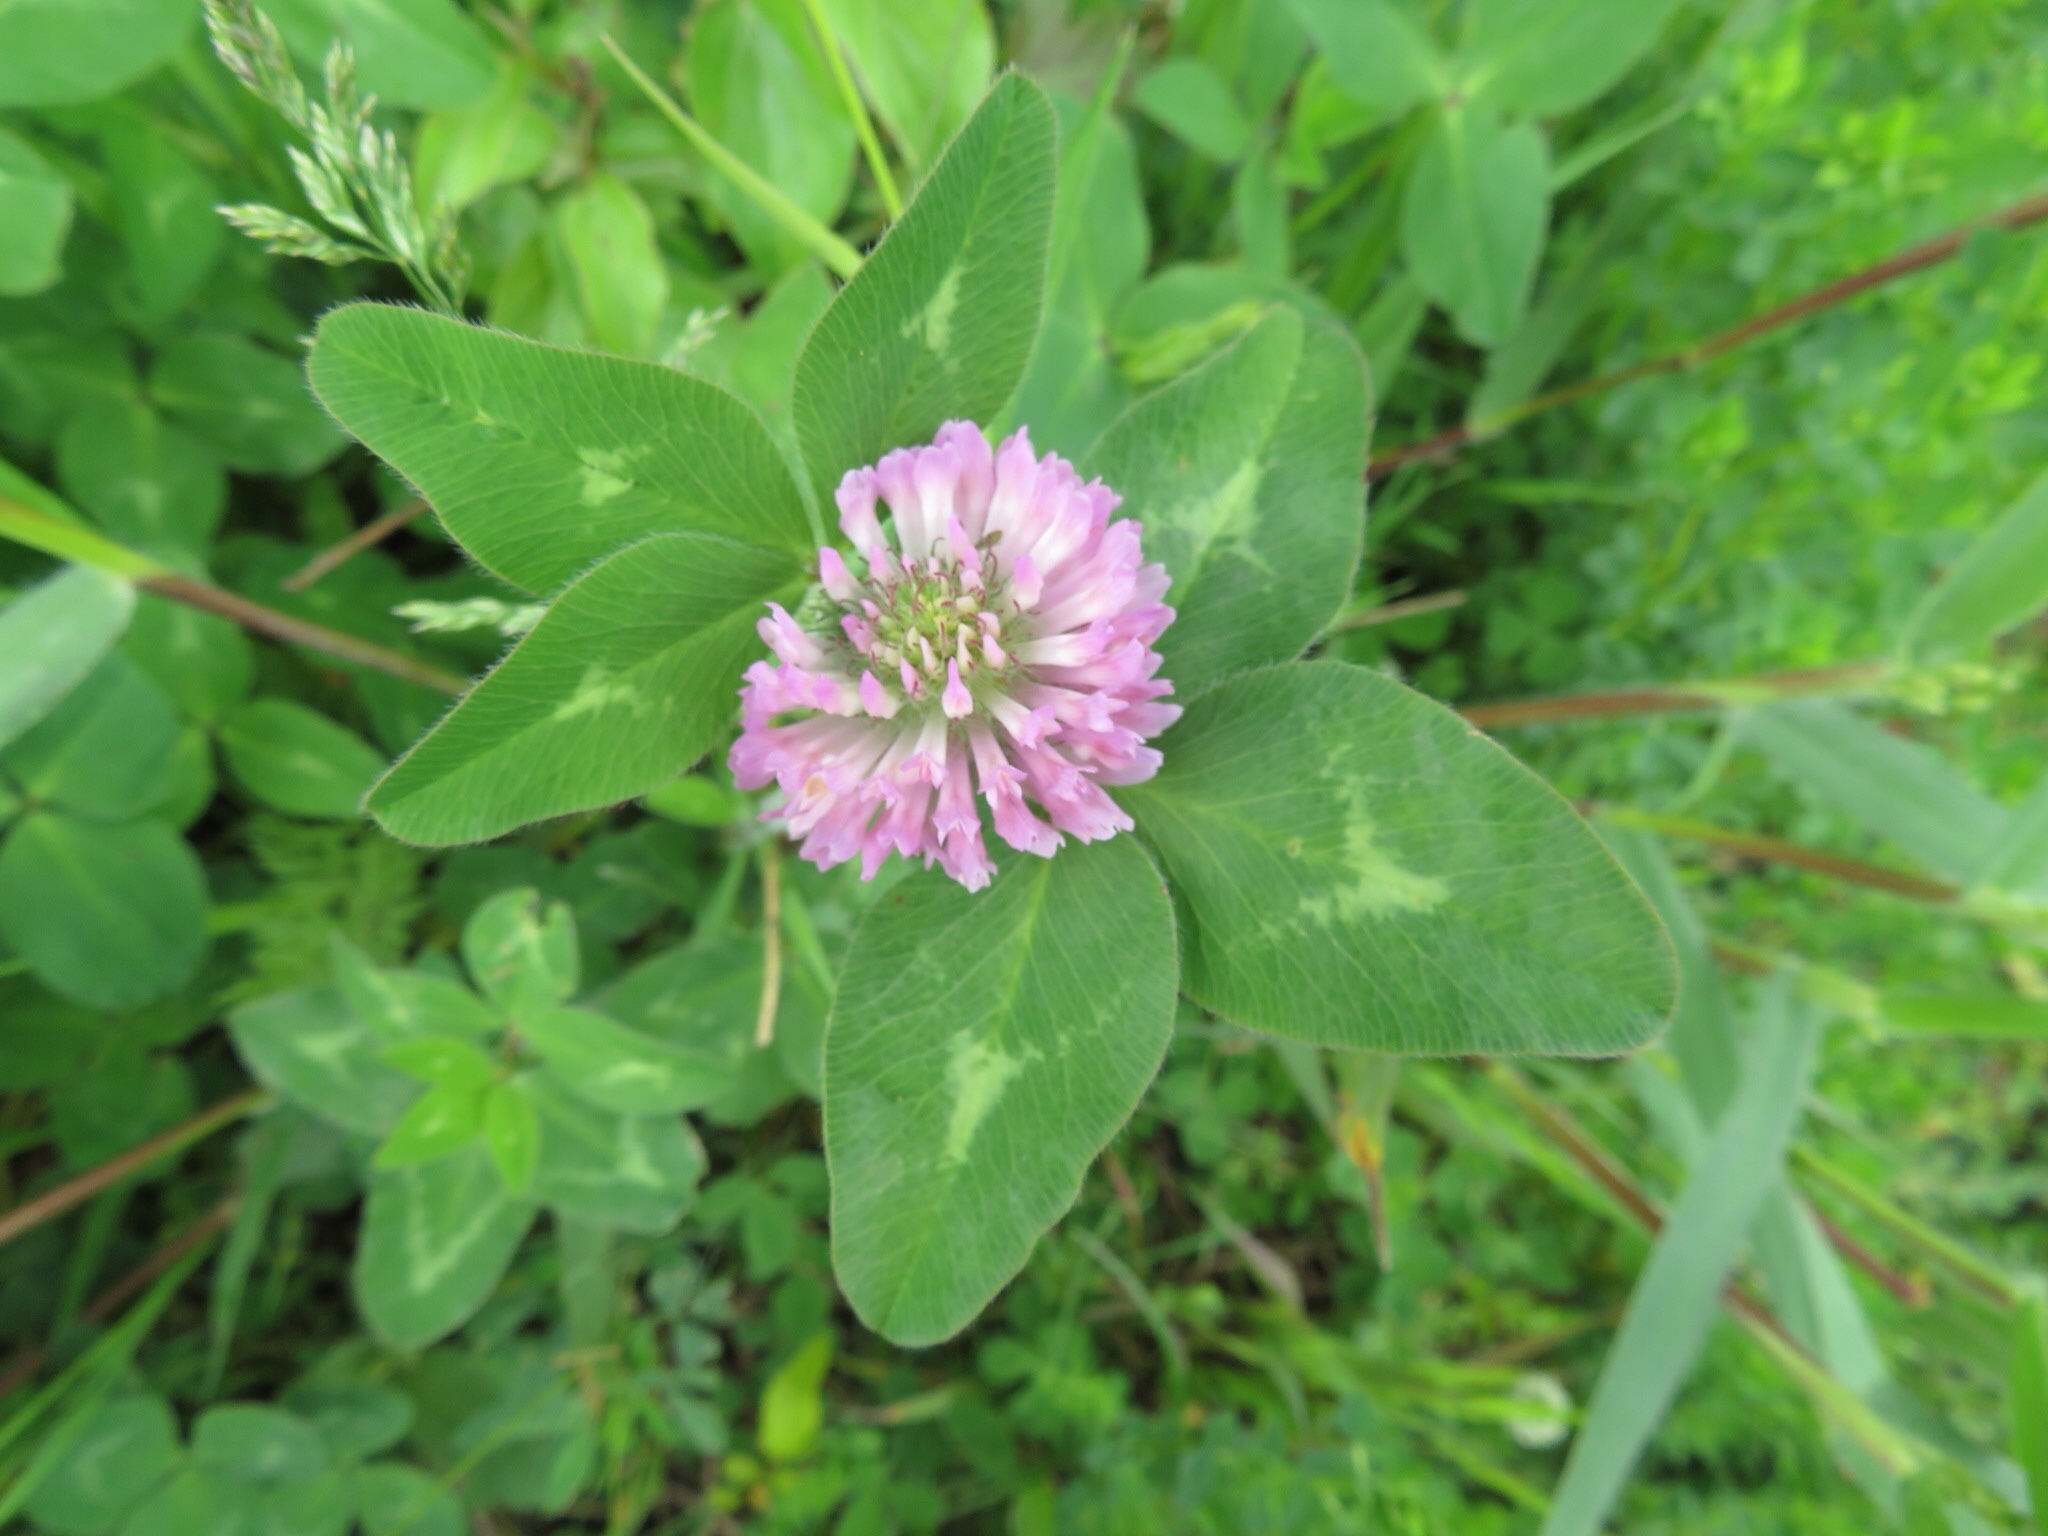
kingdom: Plantae
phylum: Tracheophyta
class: Magnoliopsida
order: Fabales
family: Fabaceae
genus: Trifolium
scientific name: Trifolium pratense
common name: Red clover
